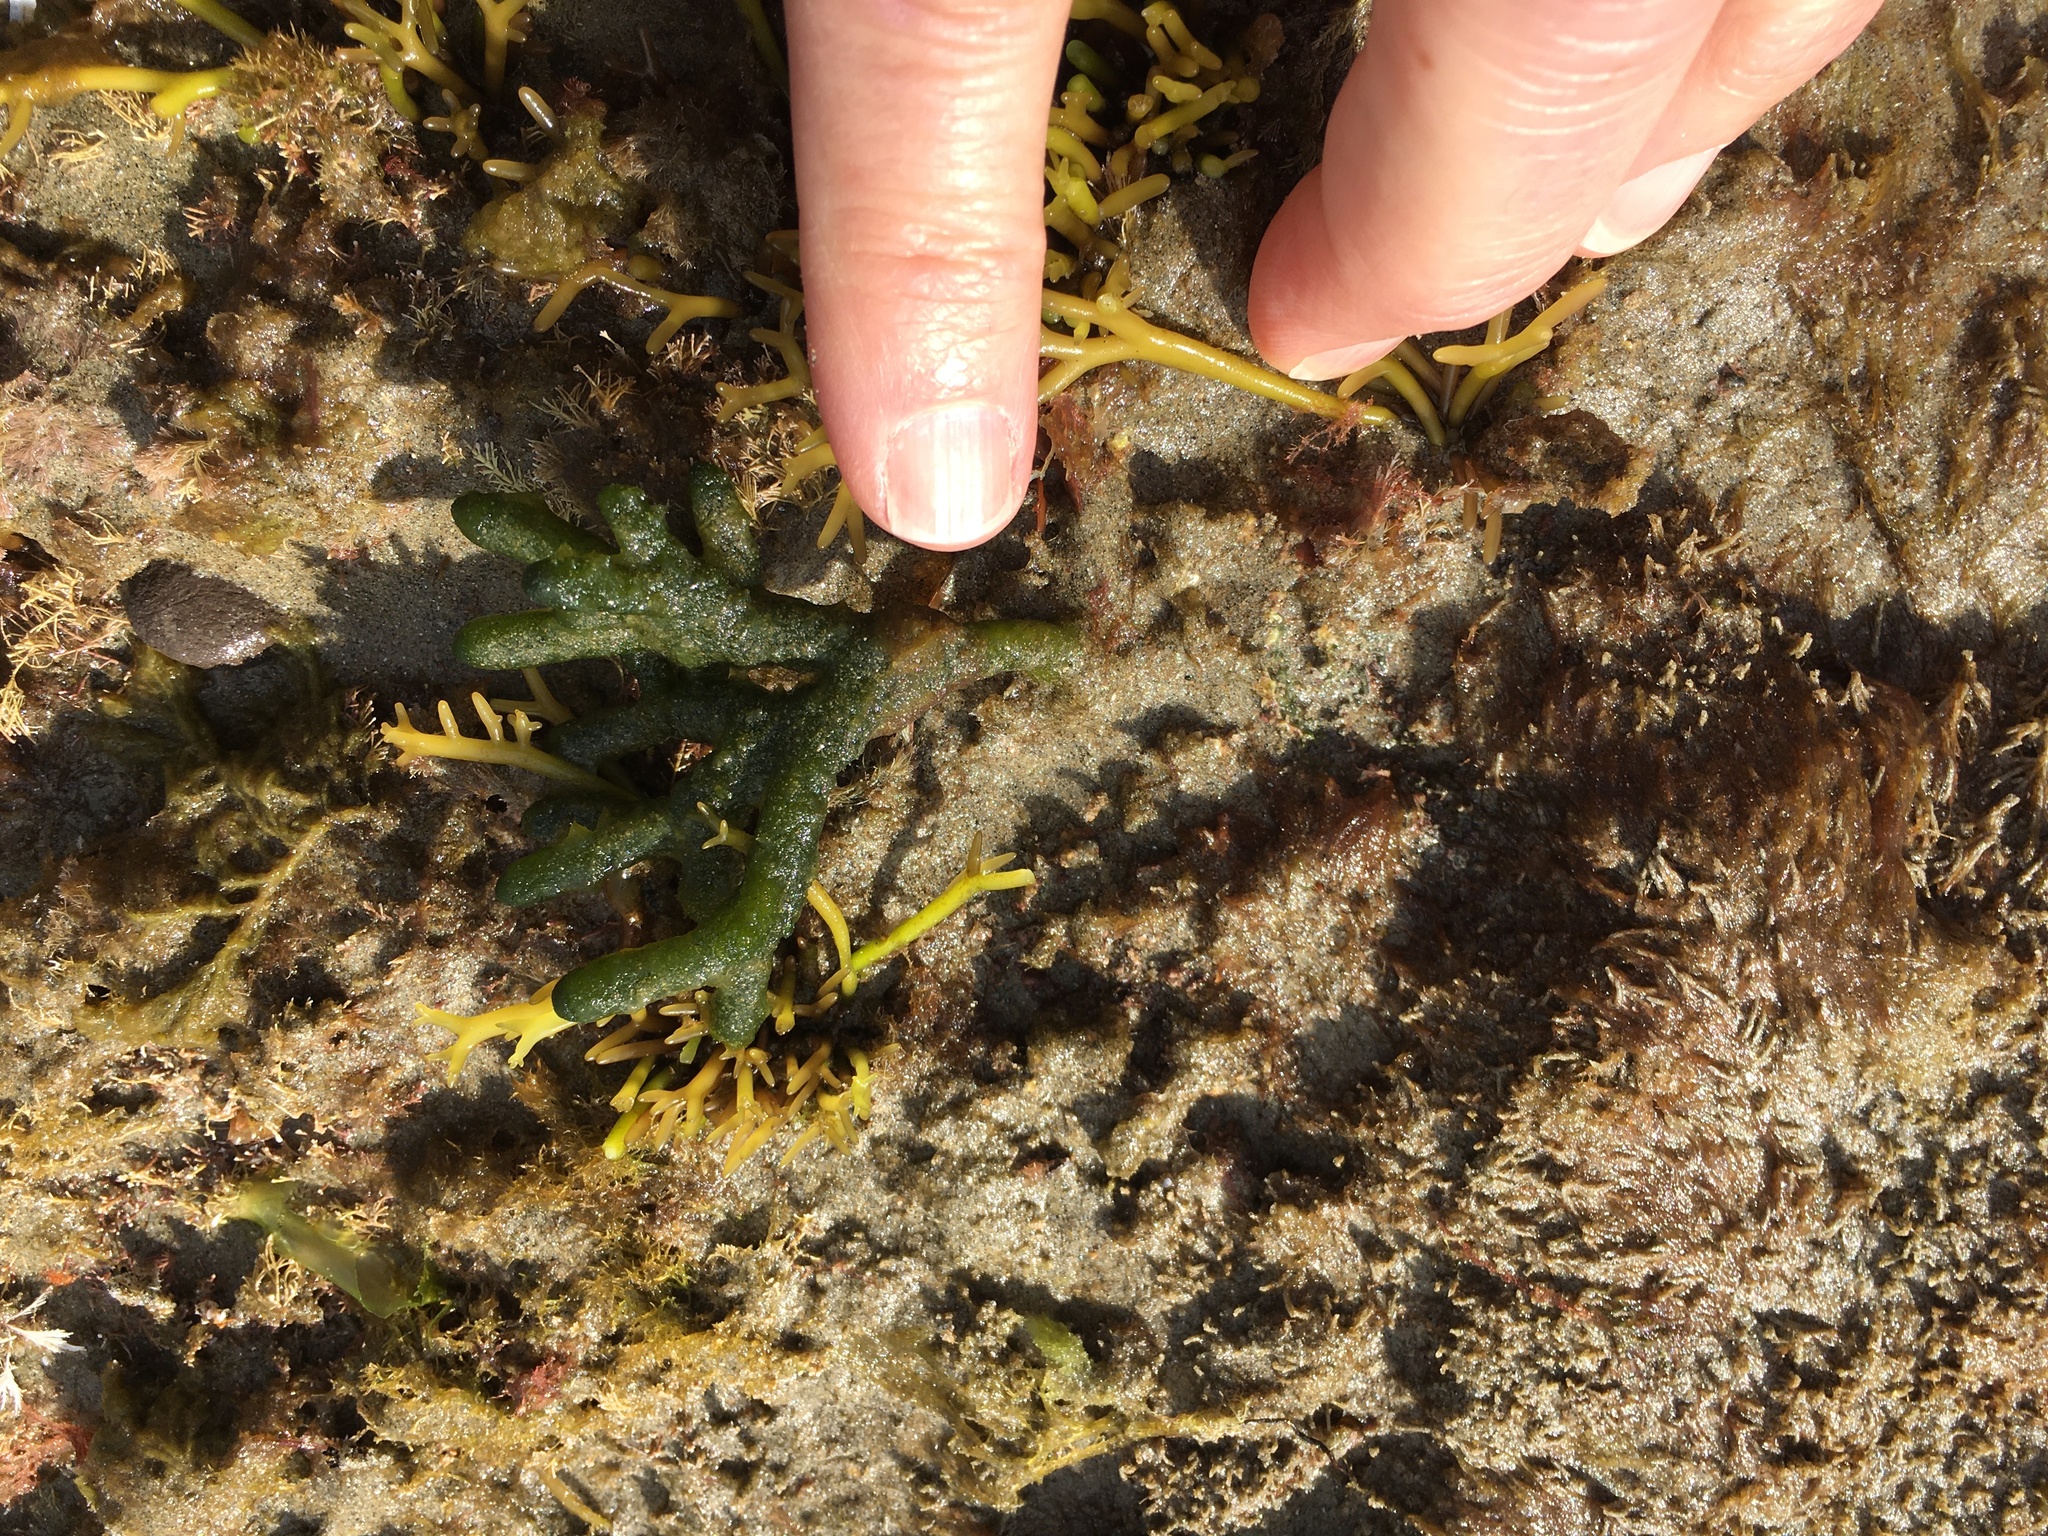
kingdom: Plantae
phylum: Chlorophyta
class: Ulvophyceae
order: Bryopsidales
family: Codiaceae
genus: Codium
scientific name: Codium fragile
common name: Dead man's fingers
